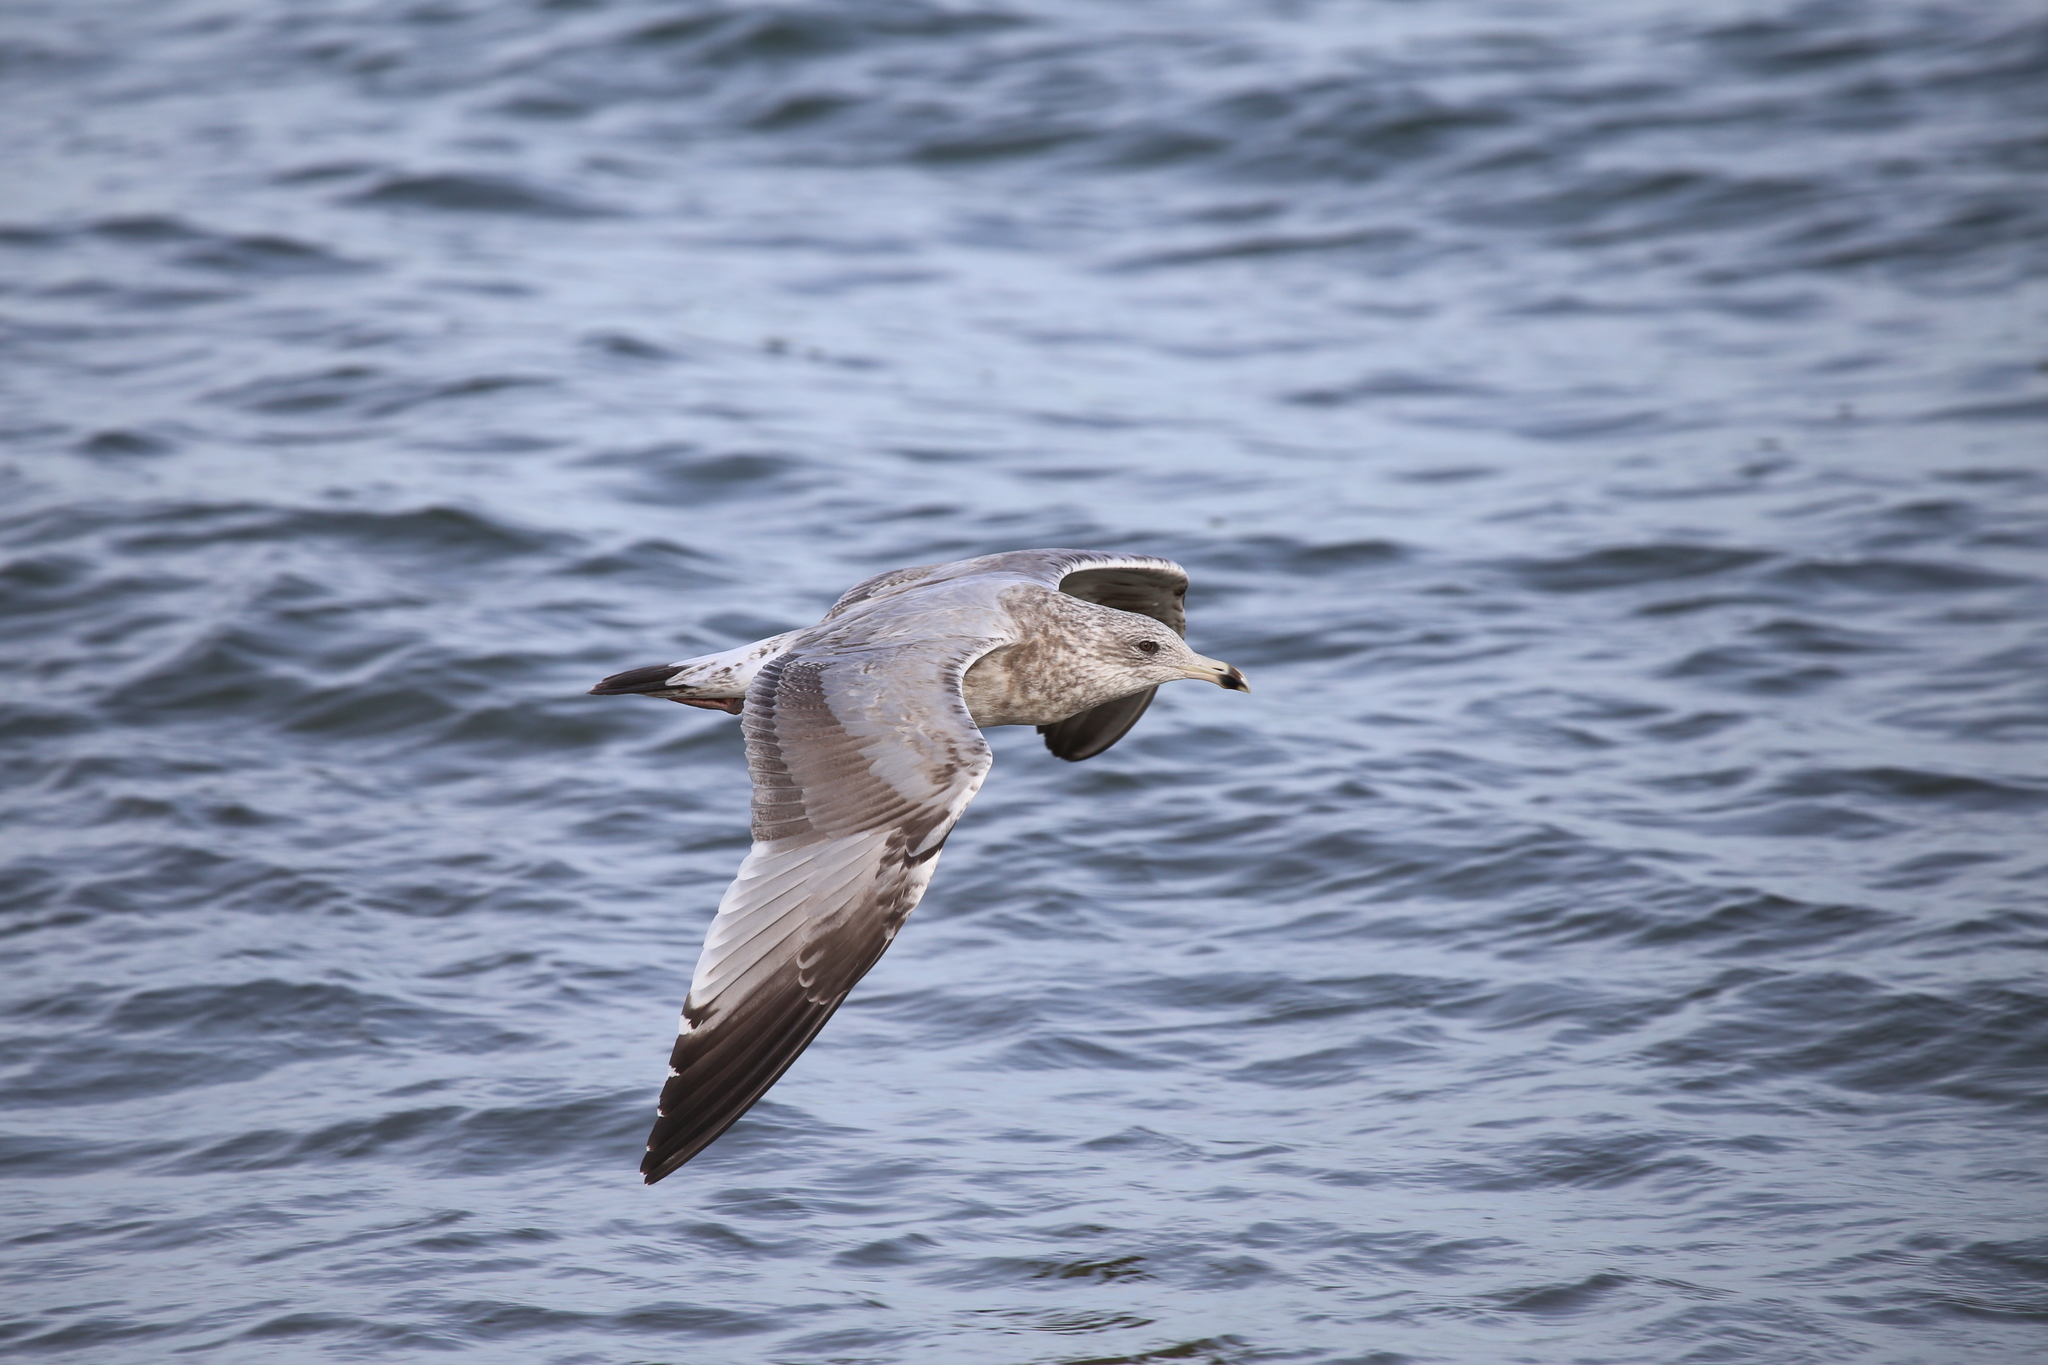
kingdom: Animalia
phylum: Chordata
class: Aves
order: Charadriiformes
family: Laridae
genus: Larus
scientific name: Larus argentatus
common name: Herring gull
